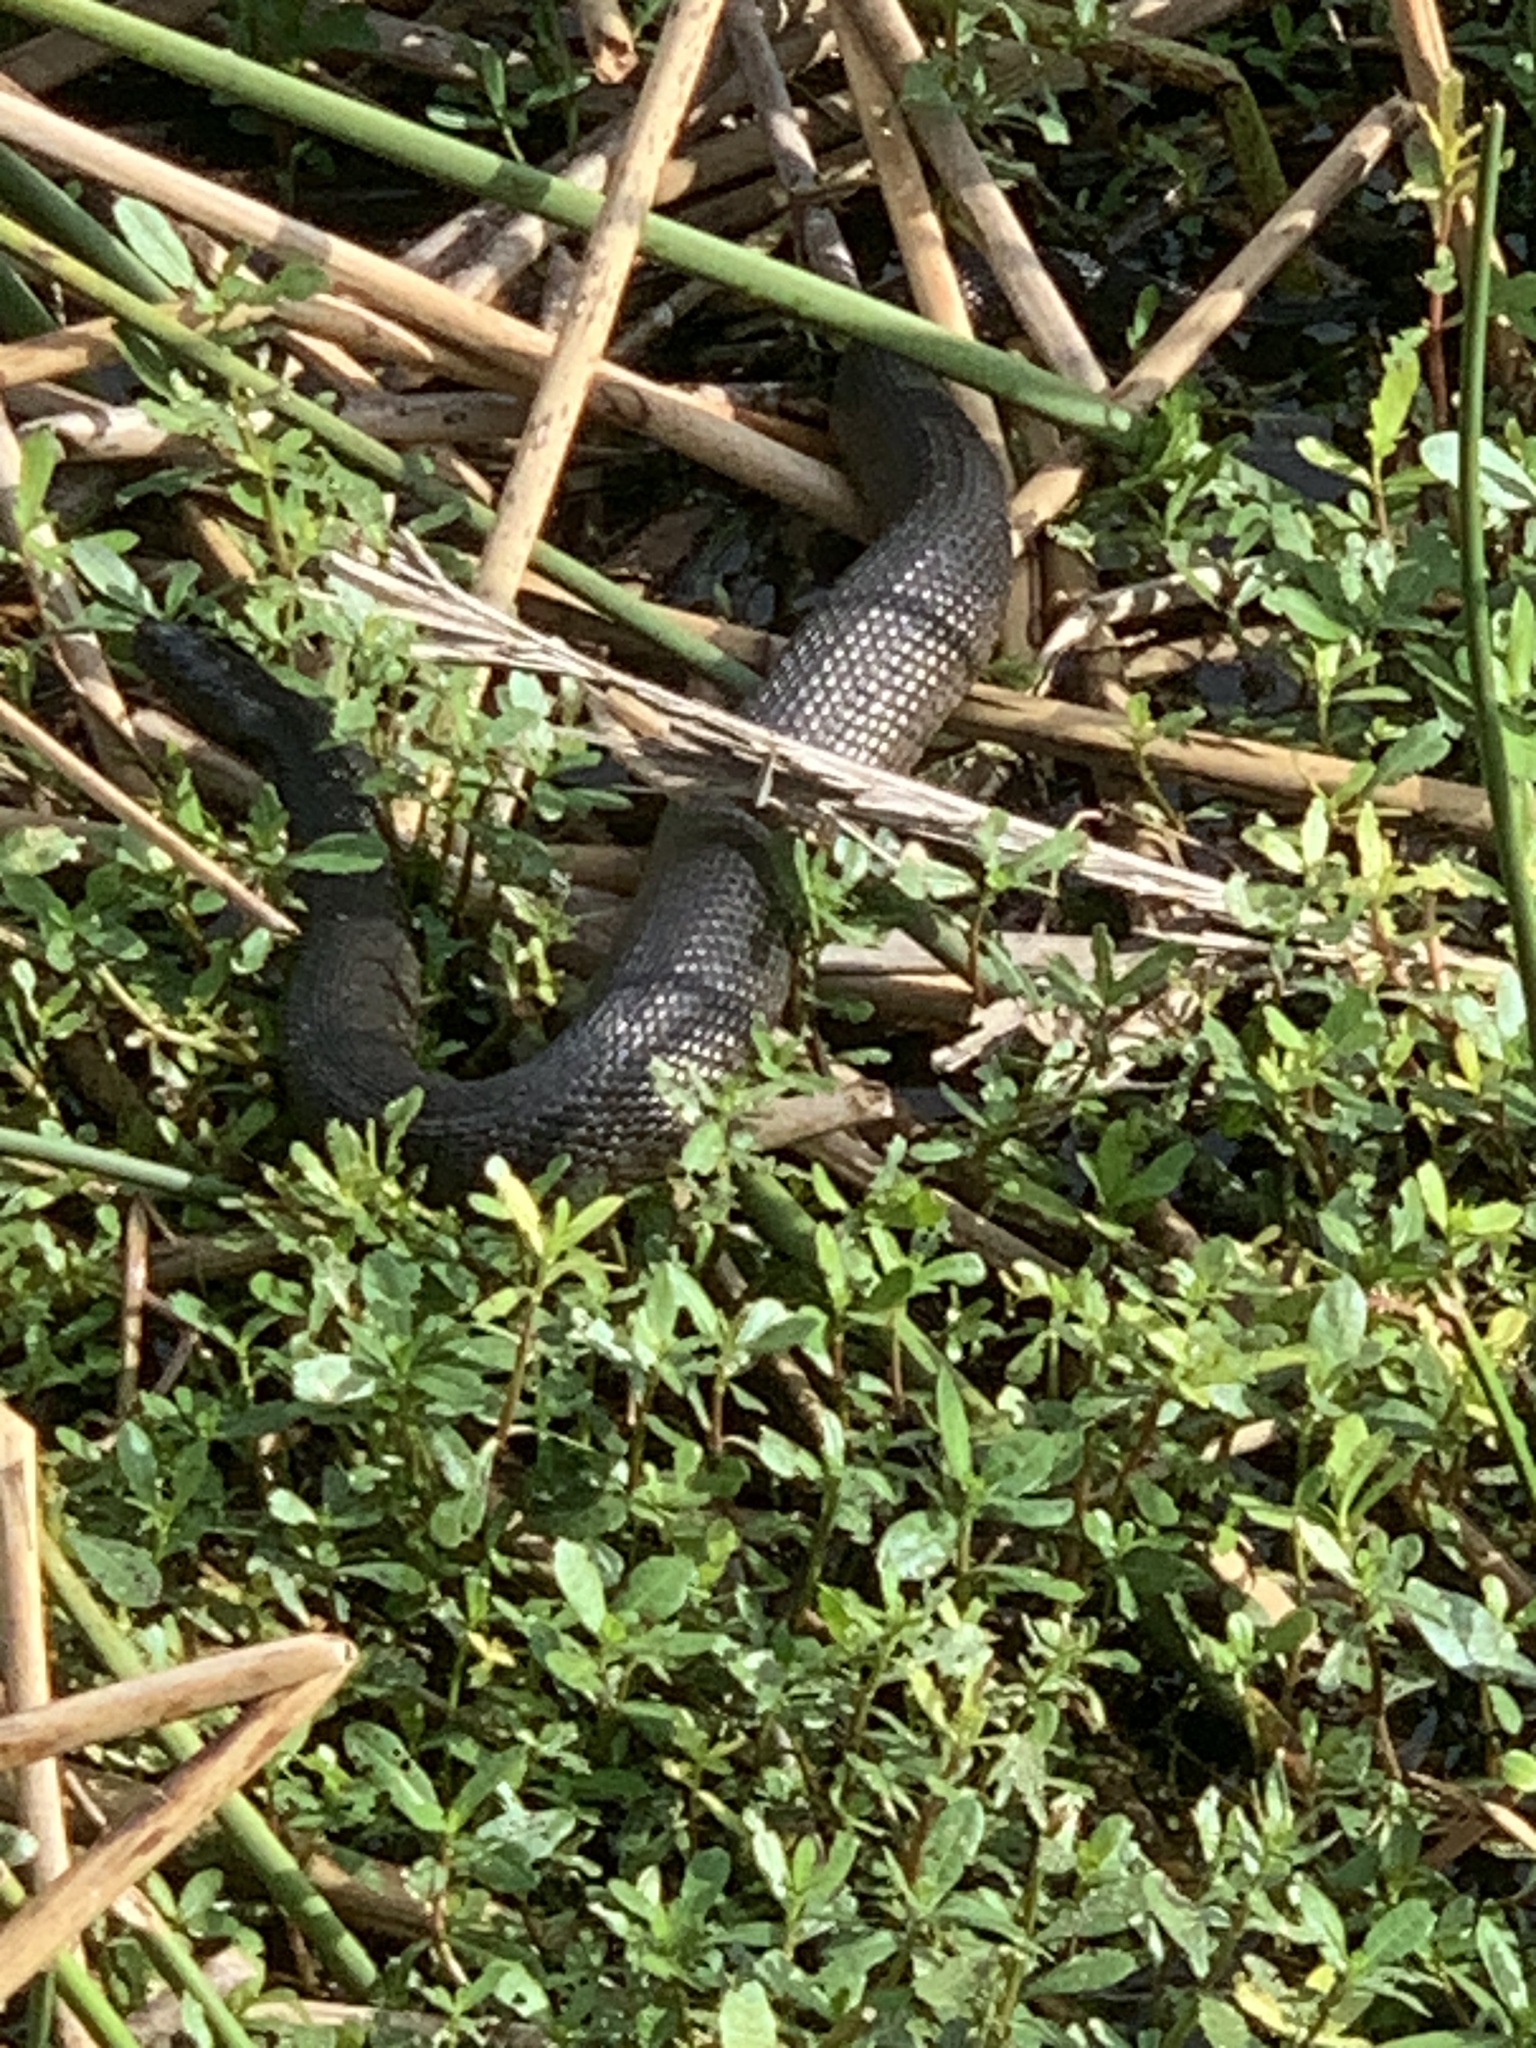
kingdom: Animalia
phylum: Chordata
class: Squamata
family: Colubridae
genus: Nerodia
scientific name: Nerodia floridana
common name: Florida green watersnake
